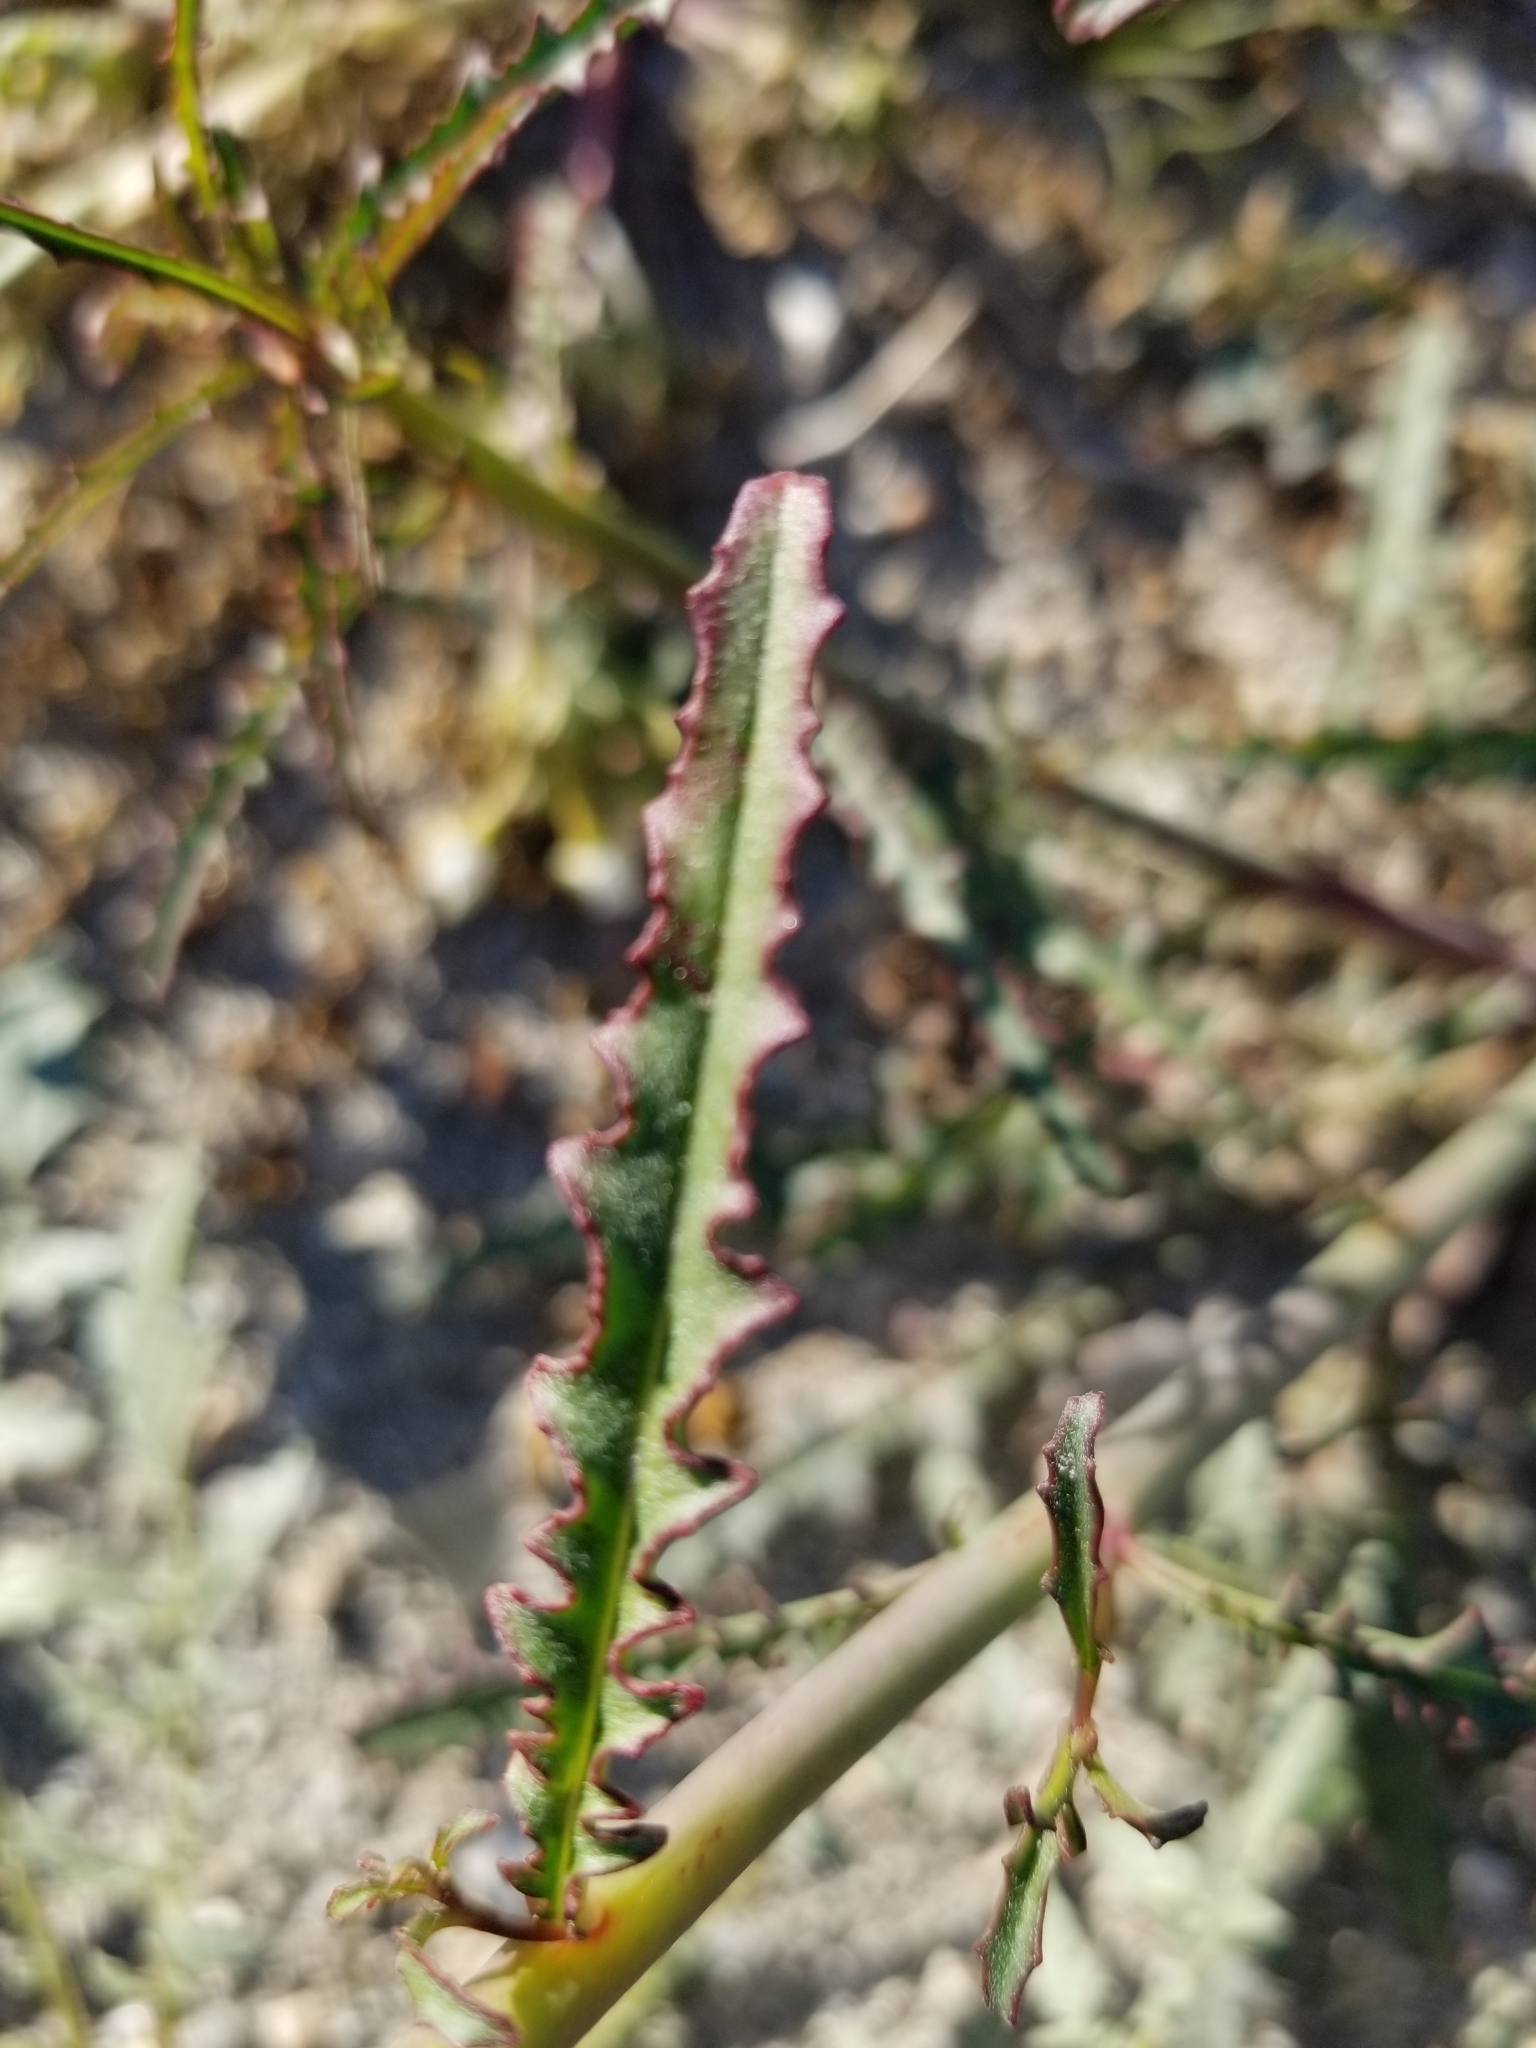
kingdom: Plantae
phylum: Tracheophyta
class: Magnoliopsida
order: Myrtales
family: Onagraceae
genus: Eulobus
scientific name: Eulobus californicus
